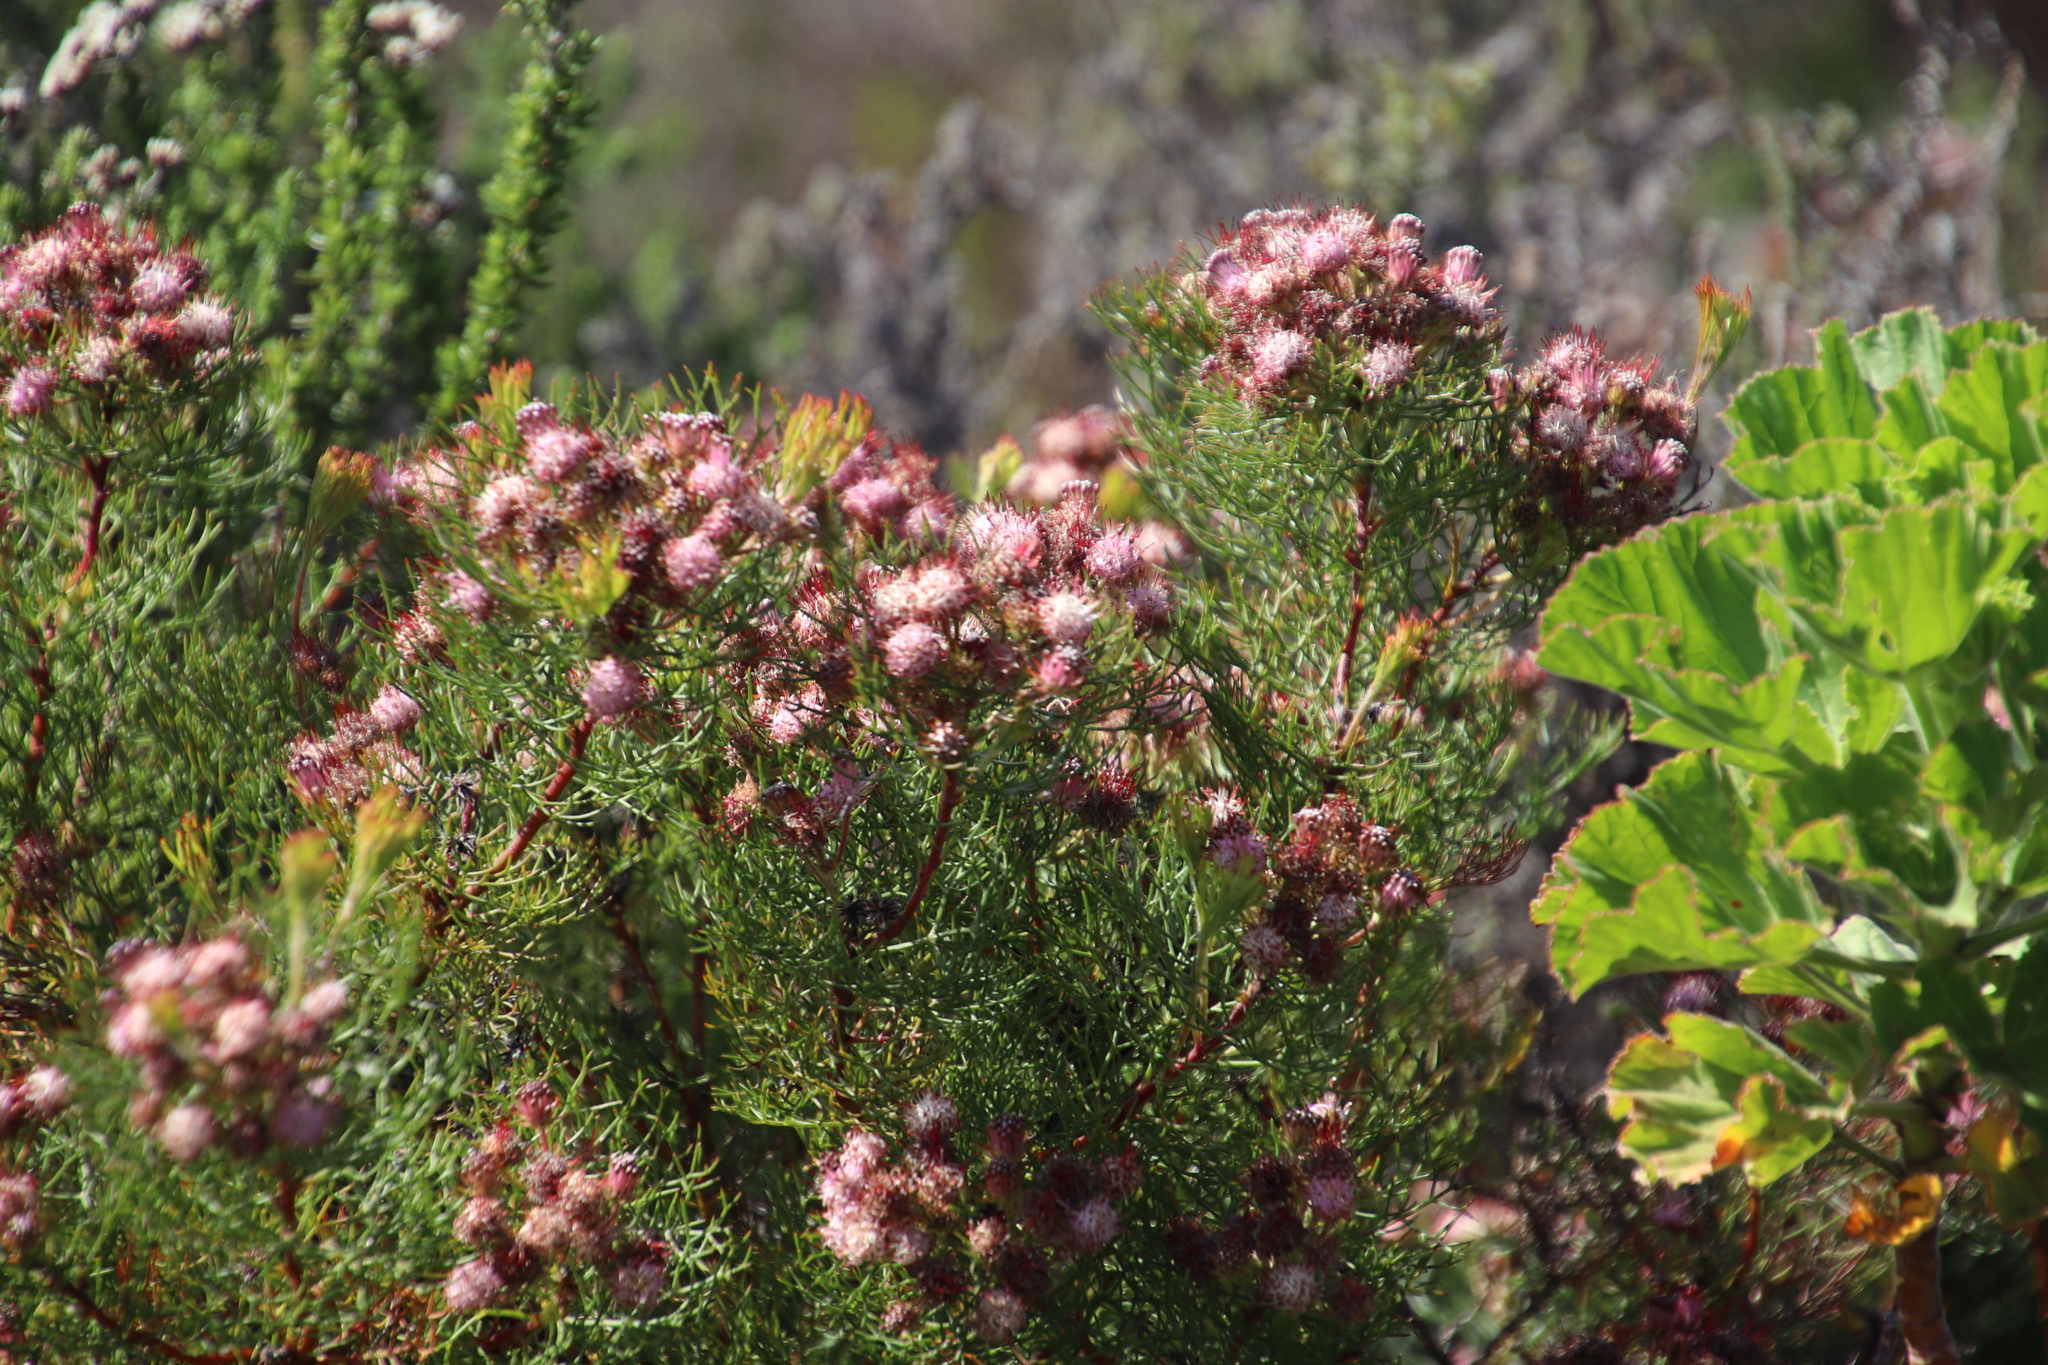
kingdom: Plantae
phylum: Tracheophyta
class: Magnoliopsida
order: Proteales
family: Proteaceae
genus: Serruria
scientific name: Serruria fasciflora
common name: Common pin spiderhead
